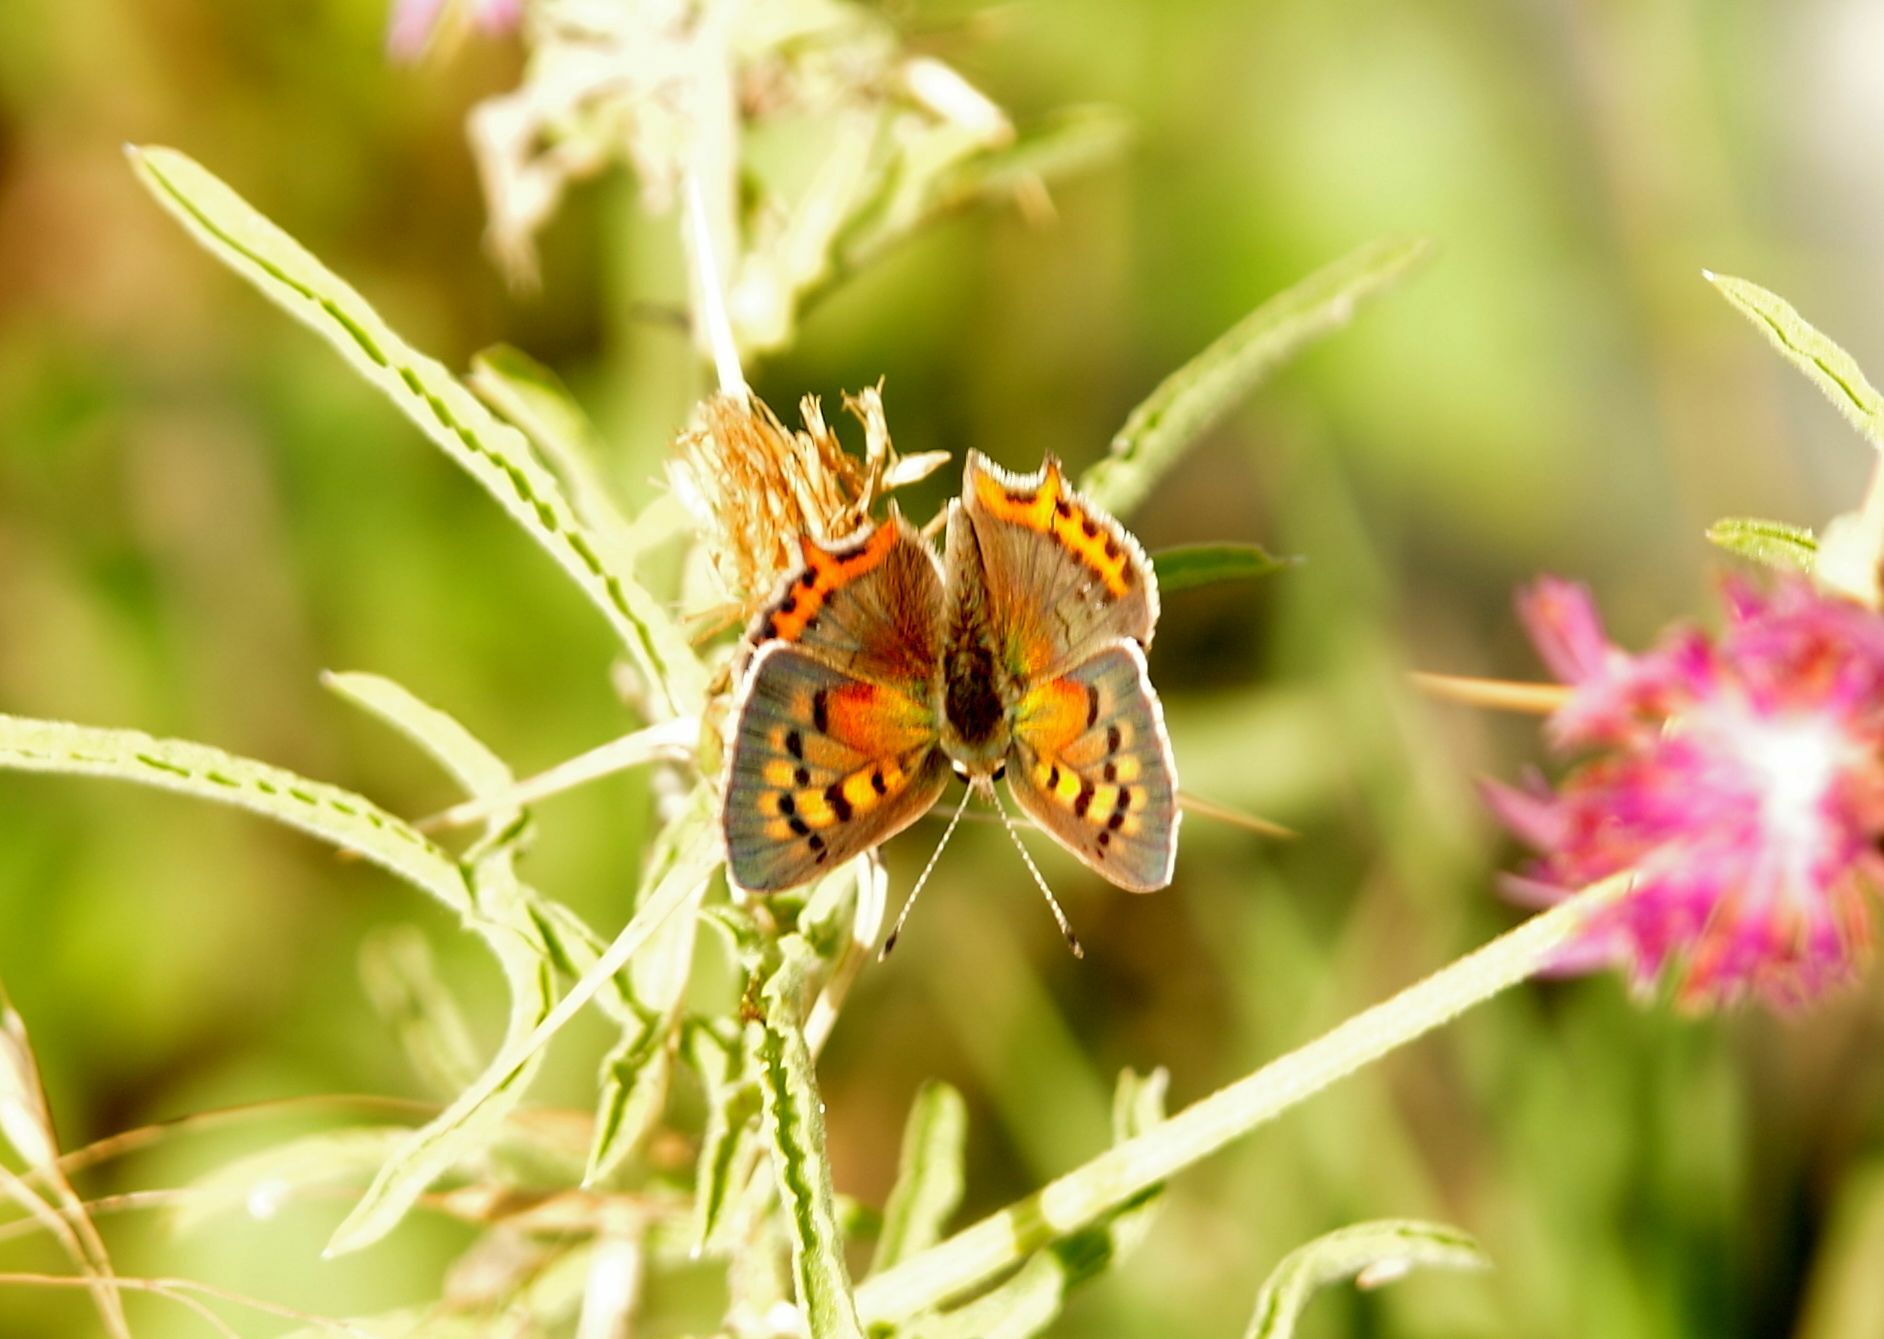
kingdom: Animalia
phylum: Arthropoda
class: Insecta
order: Lepidoptera
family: Lycaenidae
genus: Lycaena
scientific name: Lycaena phlaeas
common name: Small copper
